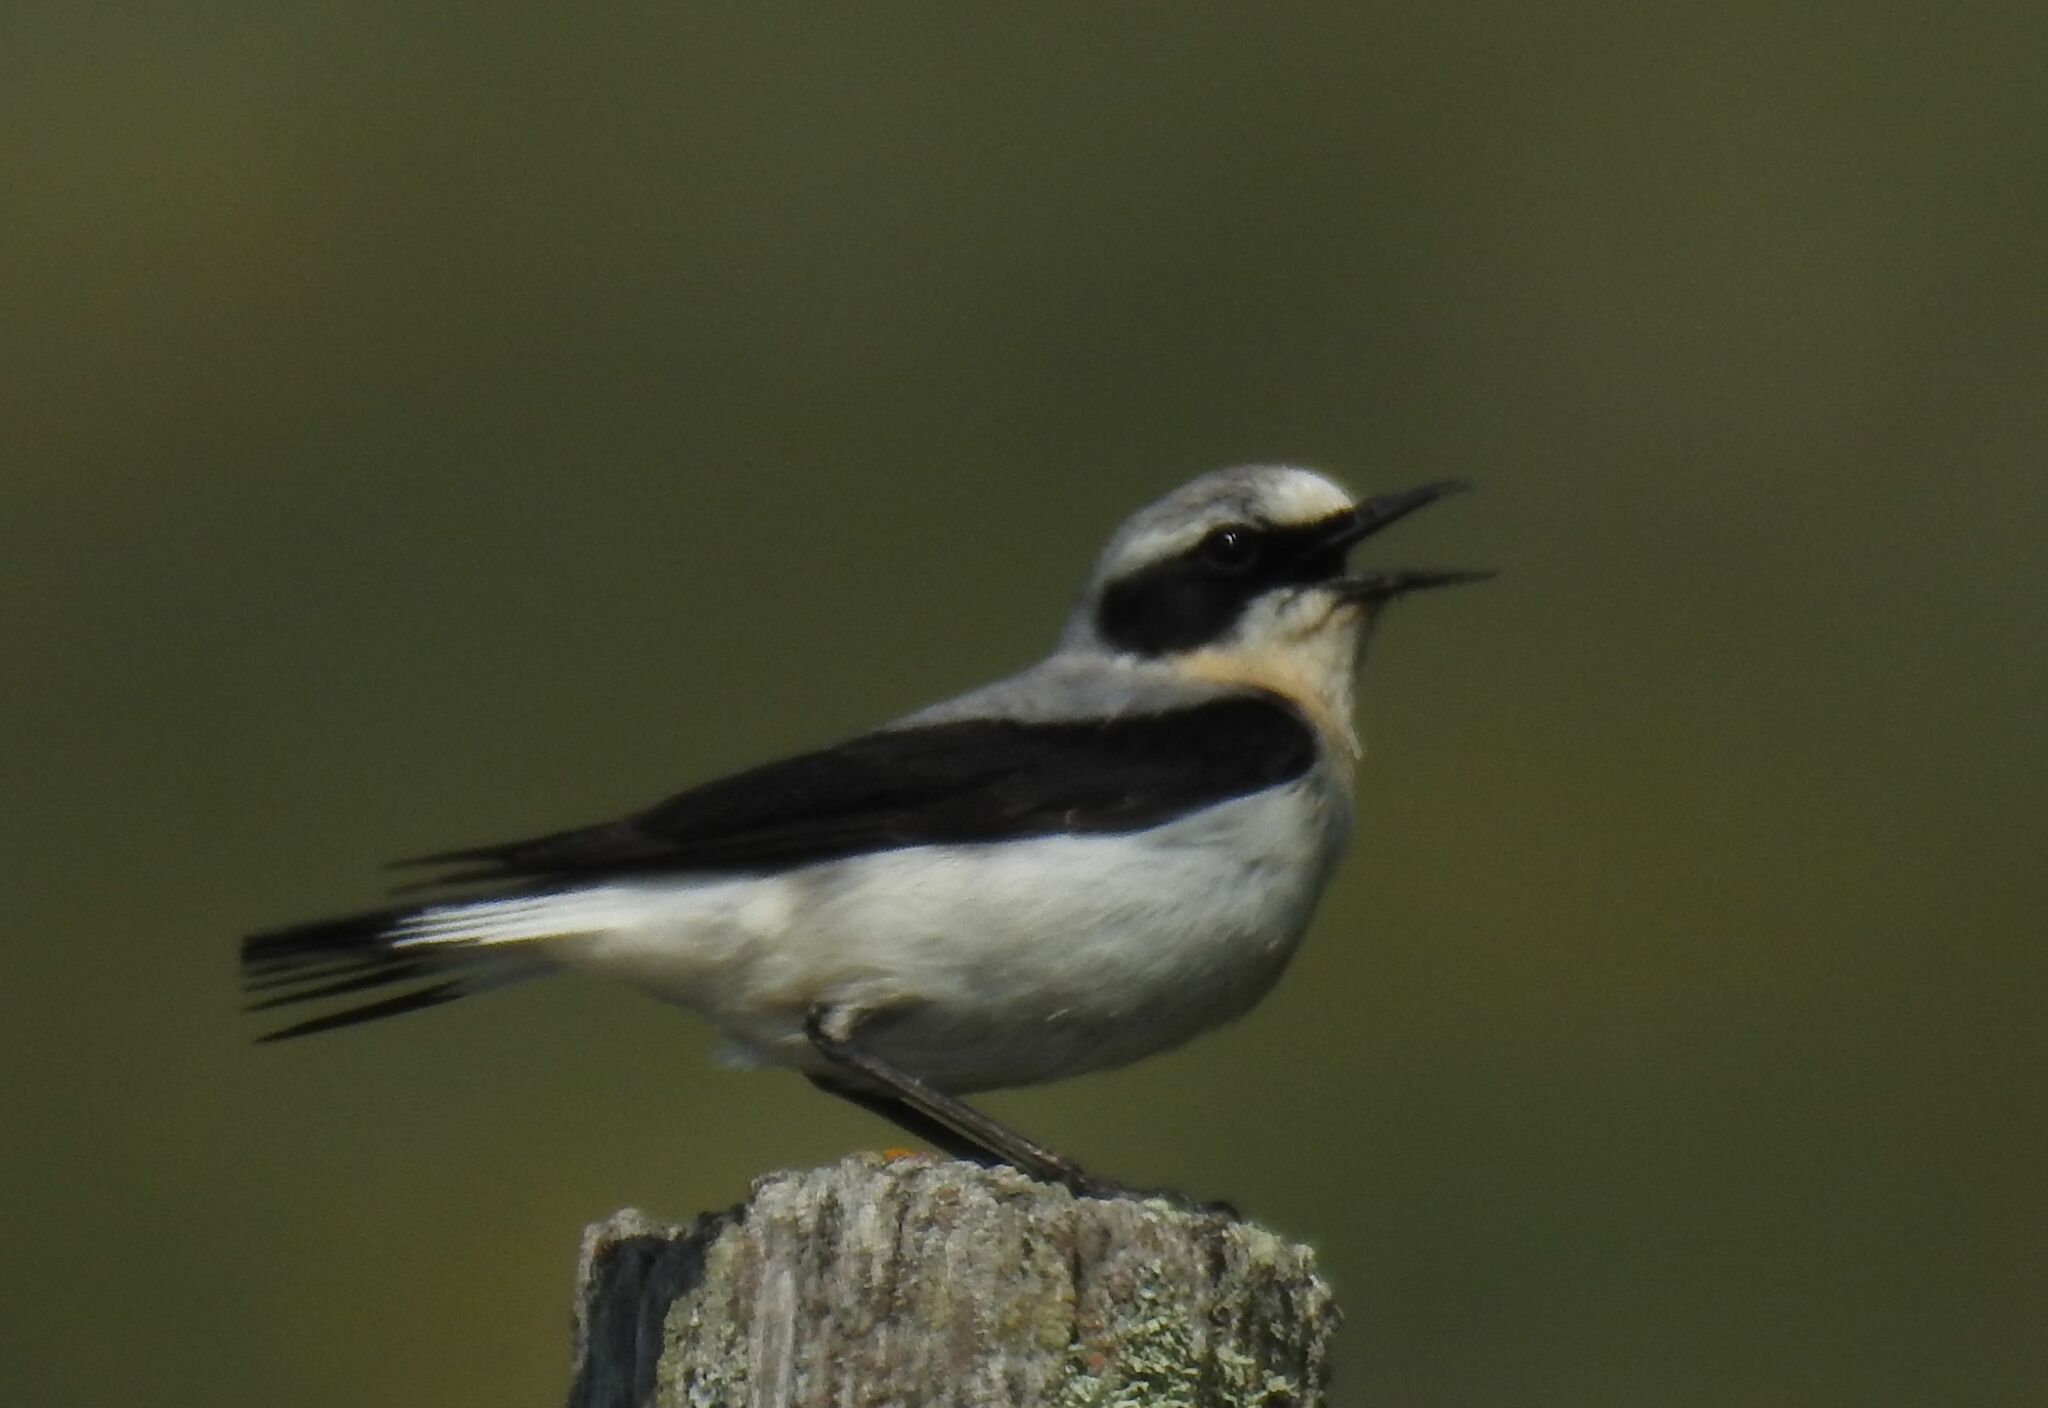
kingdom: Animalia
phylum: Chordata
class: Aves
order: Passeriformes
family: Muscicapidae
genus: Oenanthe
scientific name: Oenanthe oenanthe
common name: Northern wheatear
